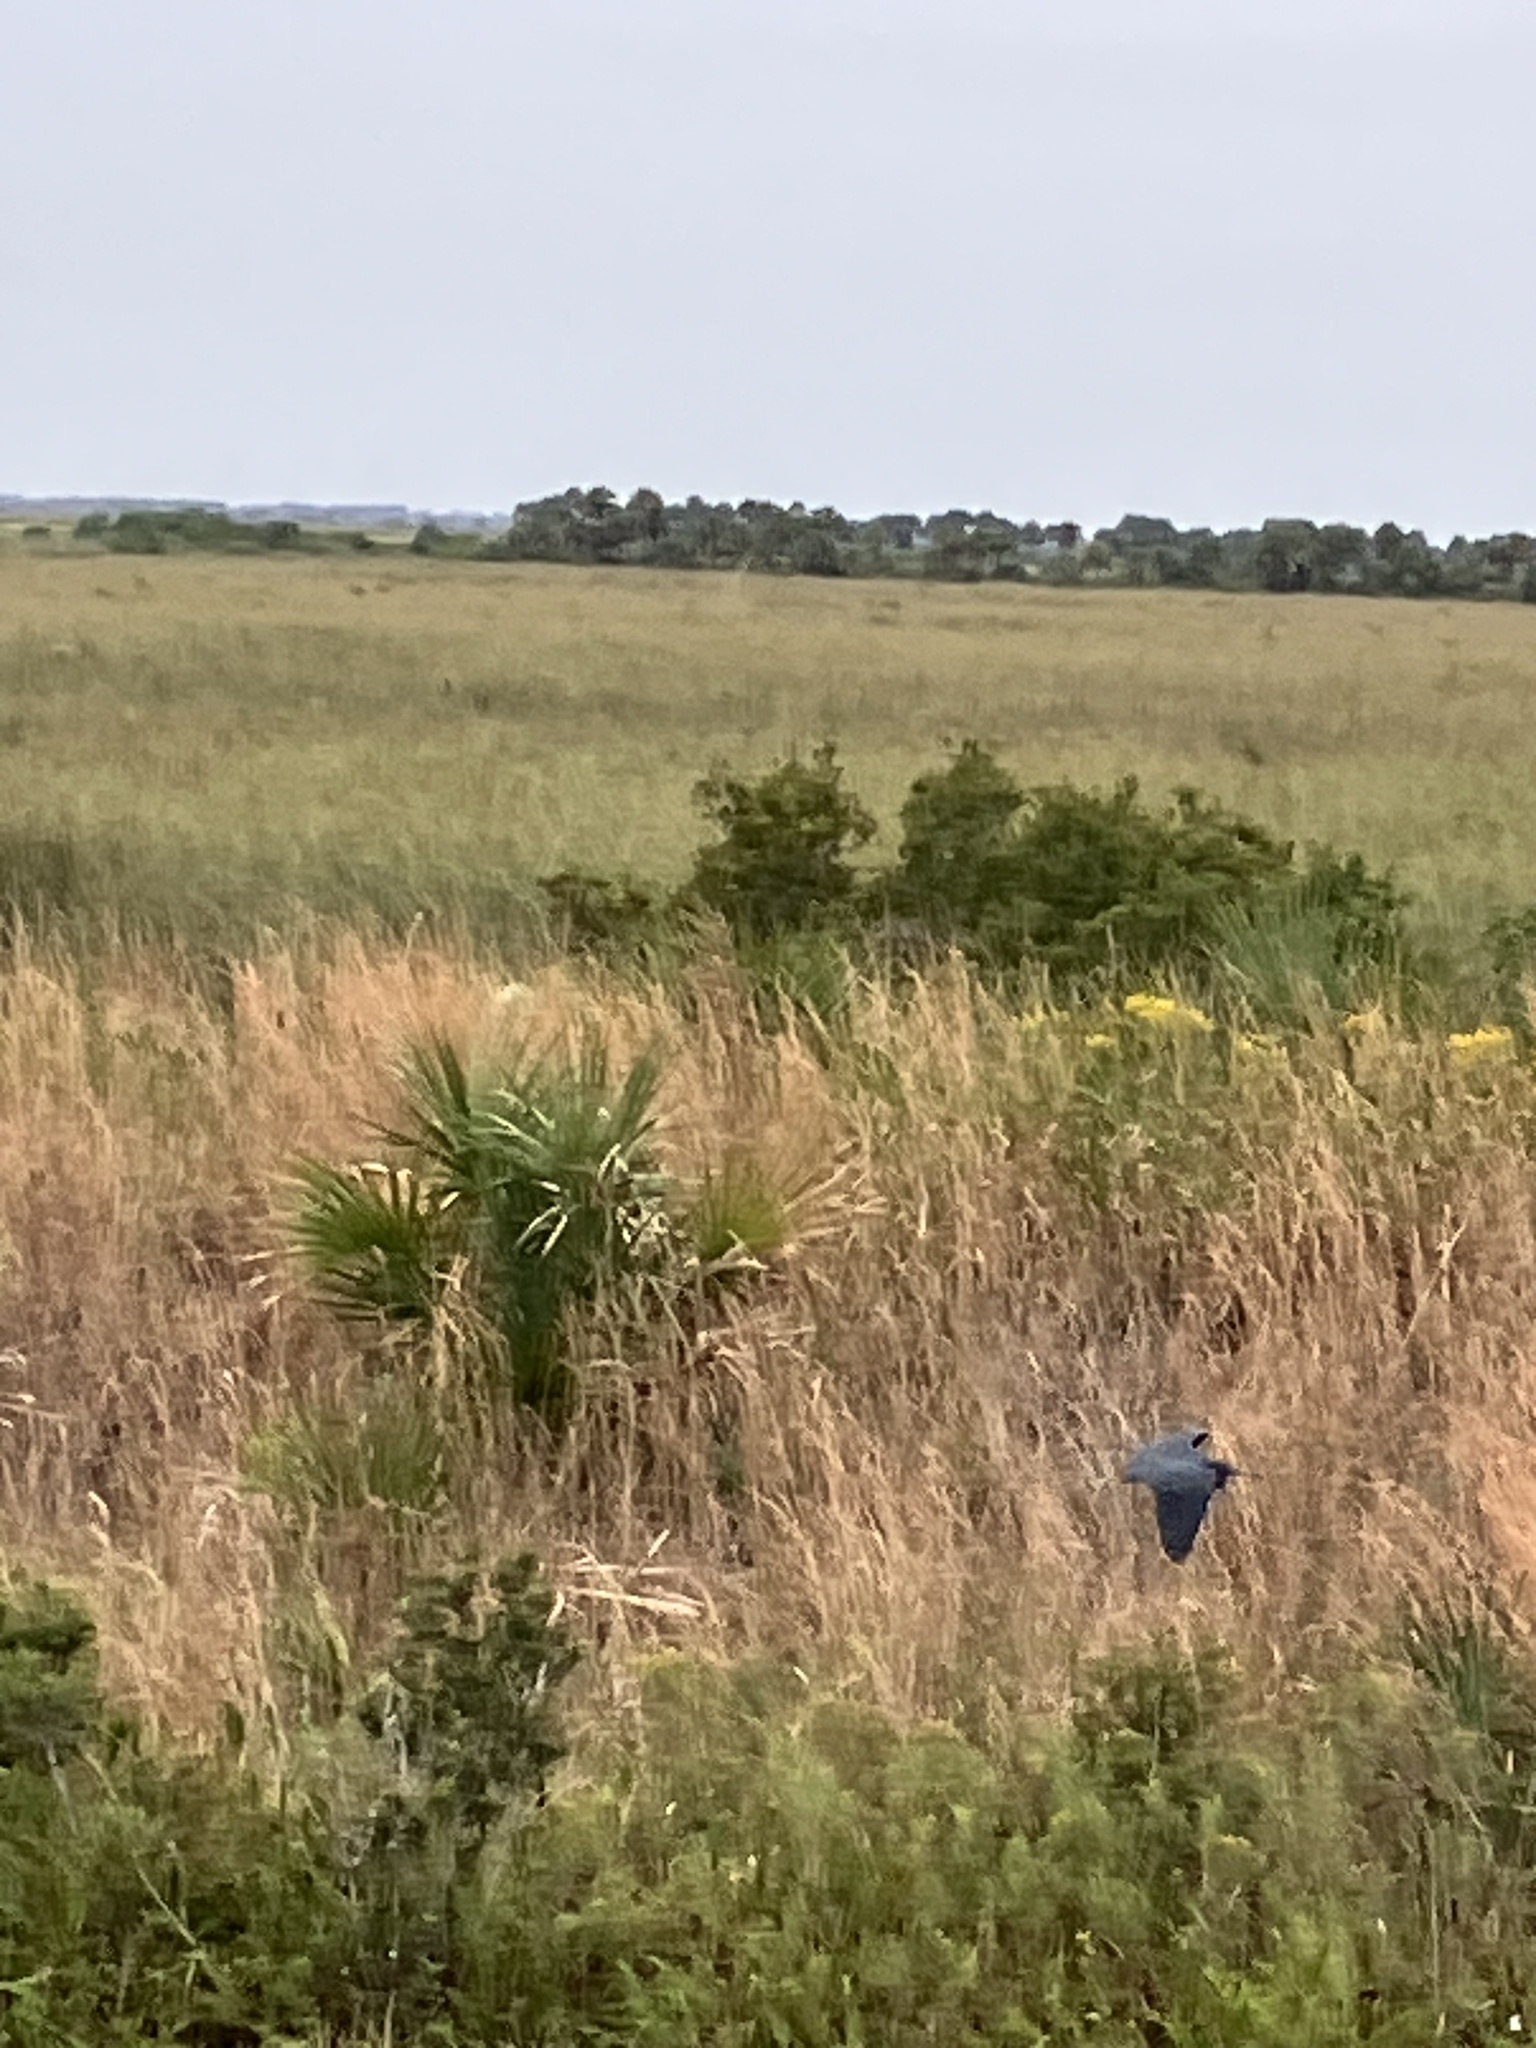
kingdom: Animalia
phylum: Chordata
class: Aves
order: Pelecaniformes
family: Ardeidae
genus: Egretta
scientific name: Egretta caerulea
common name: Little blue heron
